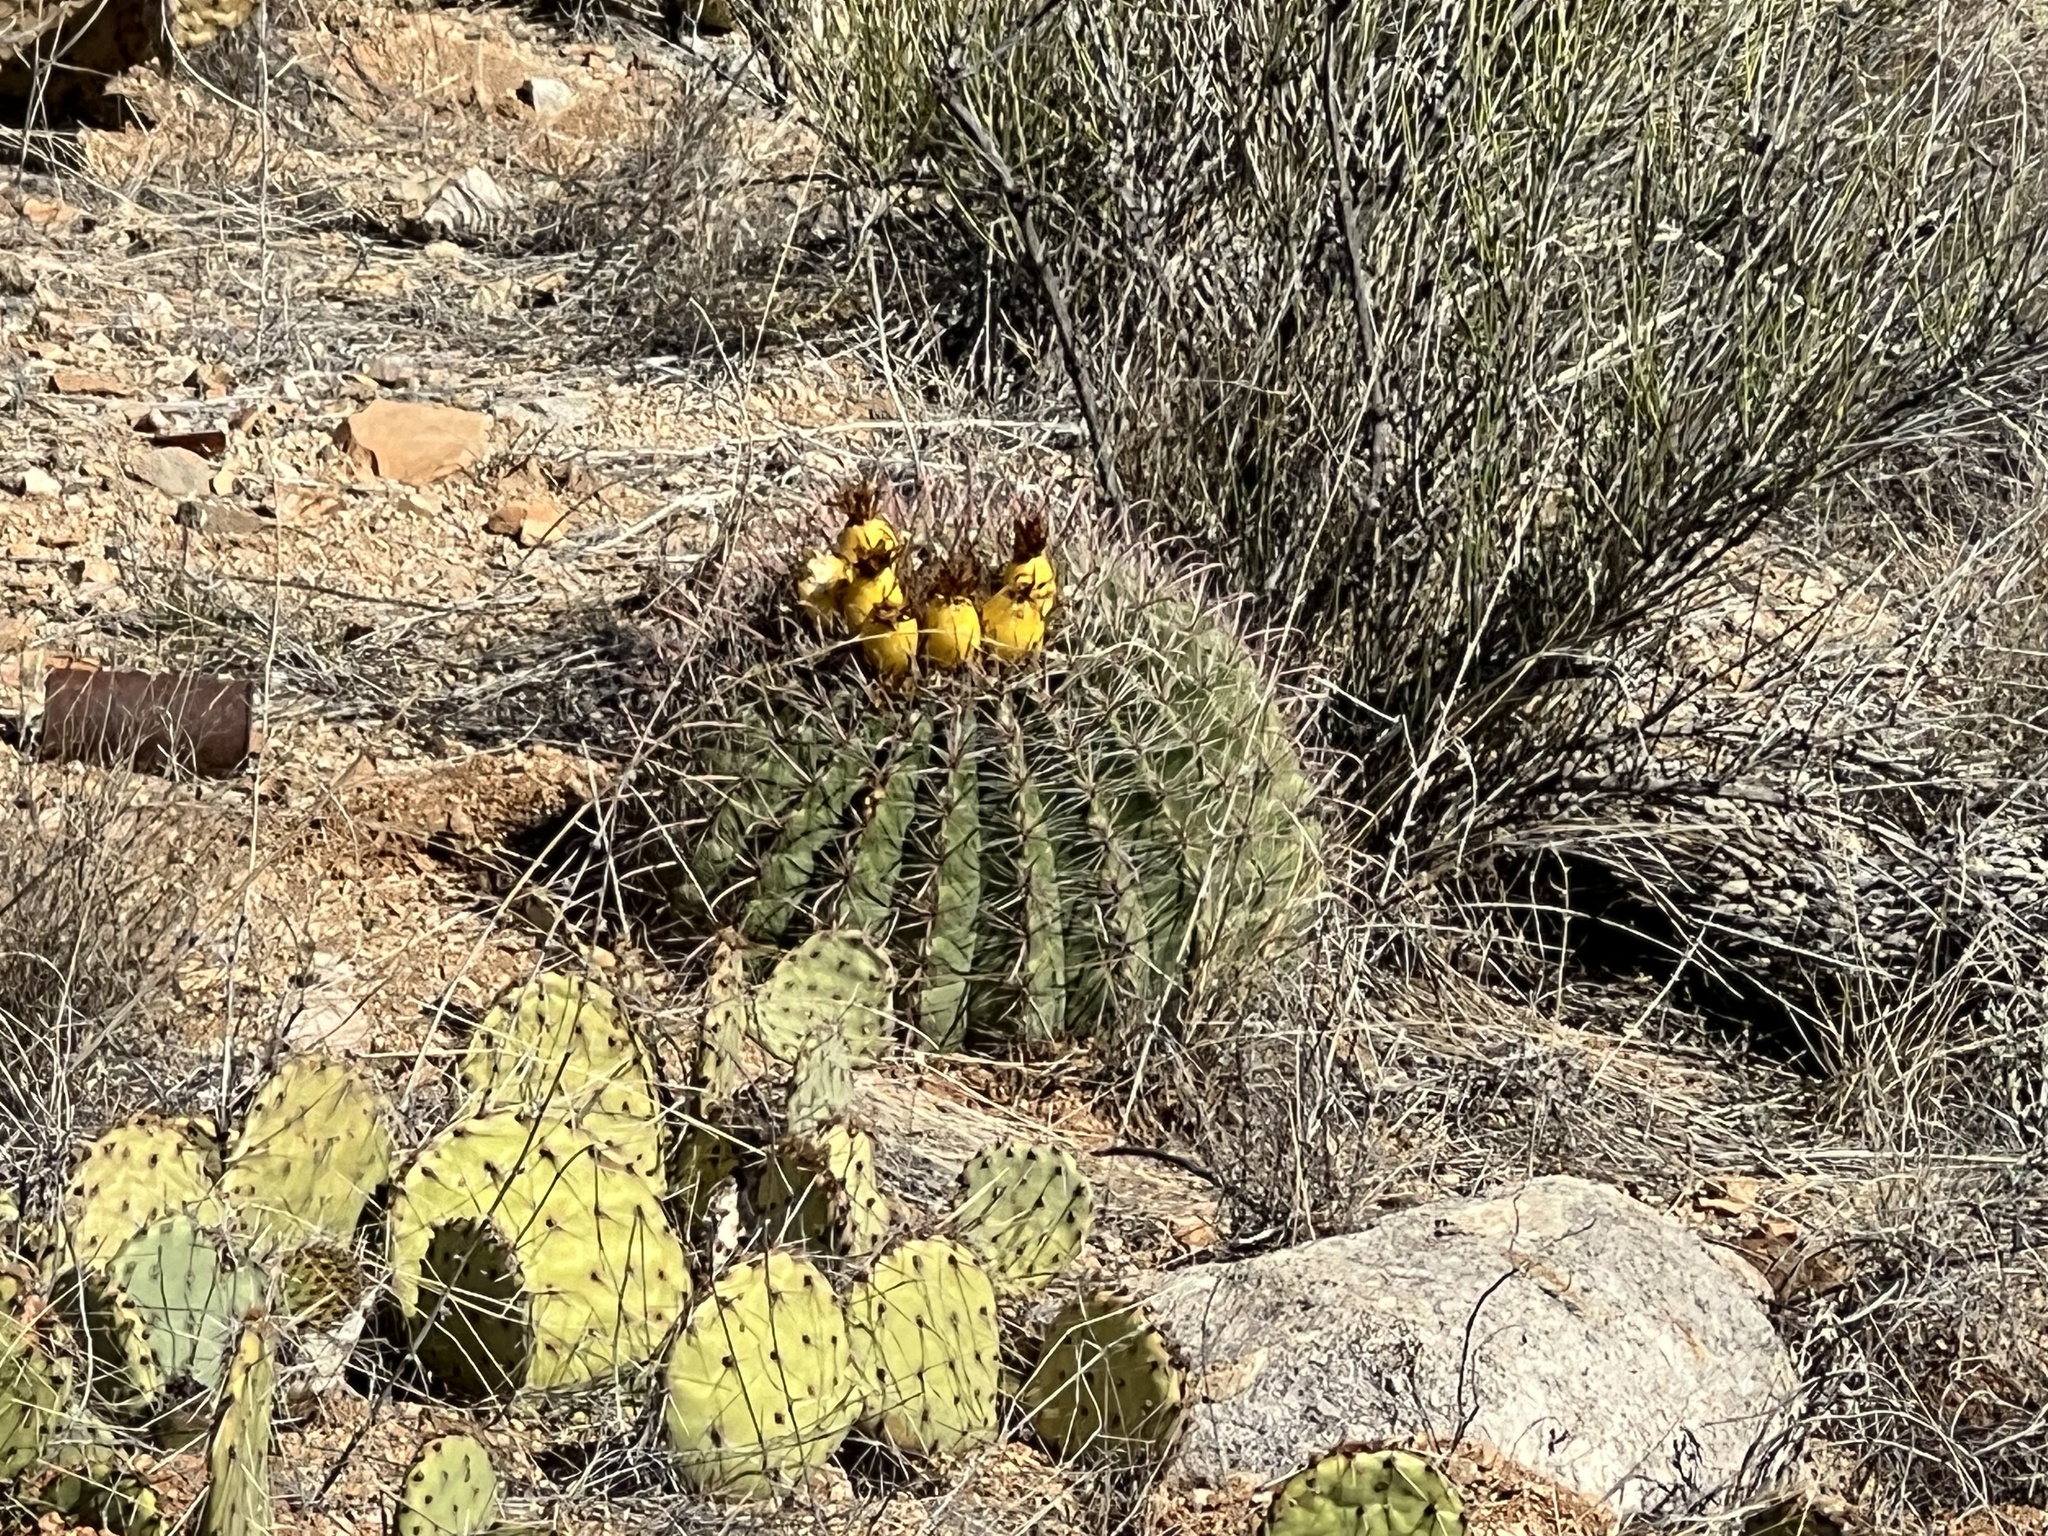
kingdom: Plantae
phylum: Tracheophyta
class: Magnoliopsida
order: Caryophyllales
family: Cactaceae
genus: Ferocactus
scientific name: Ferocactus wislizeni
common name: Candy barrel cactus
